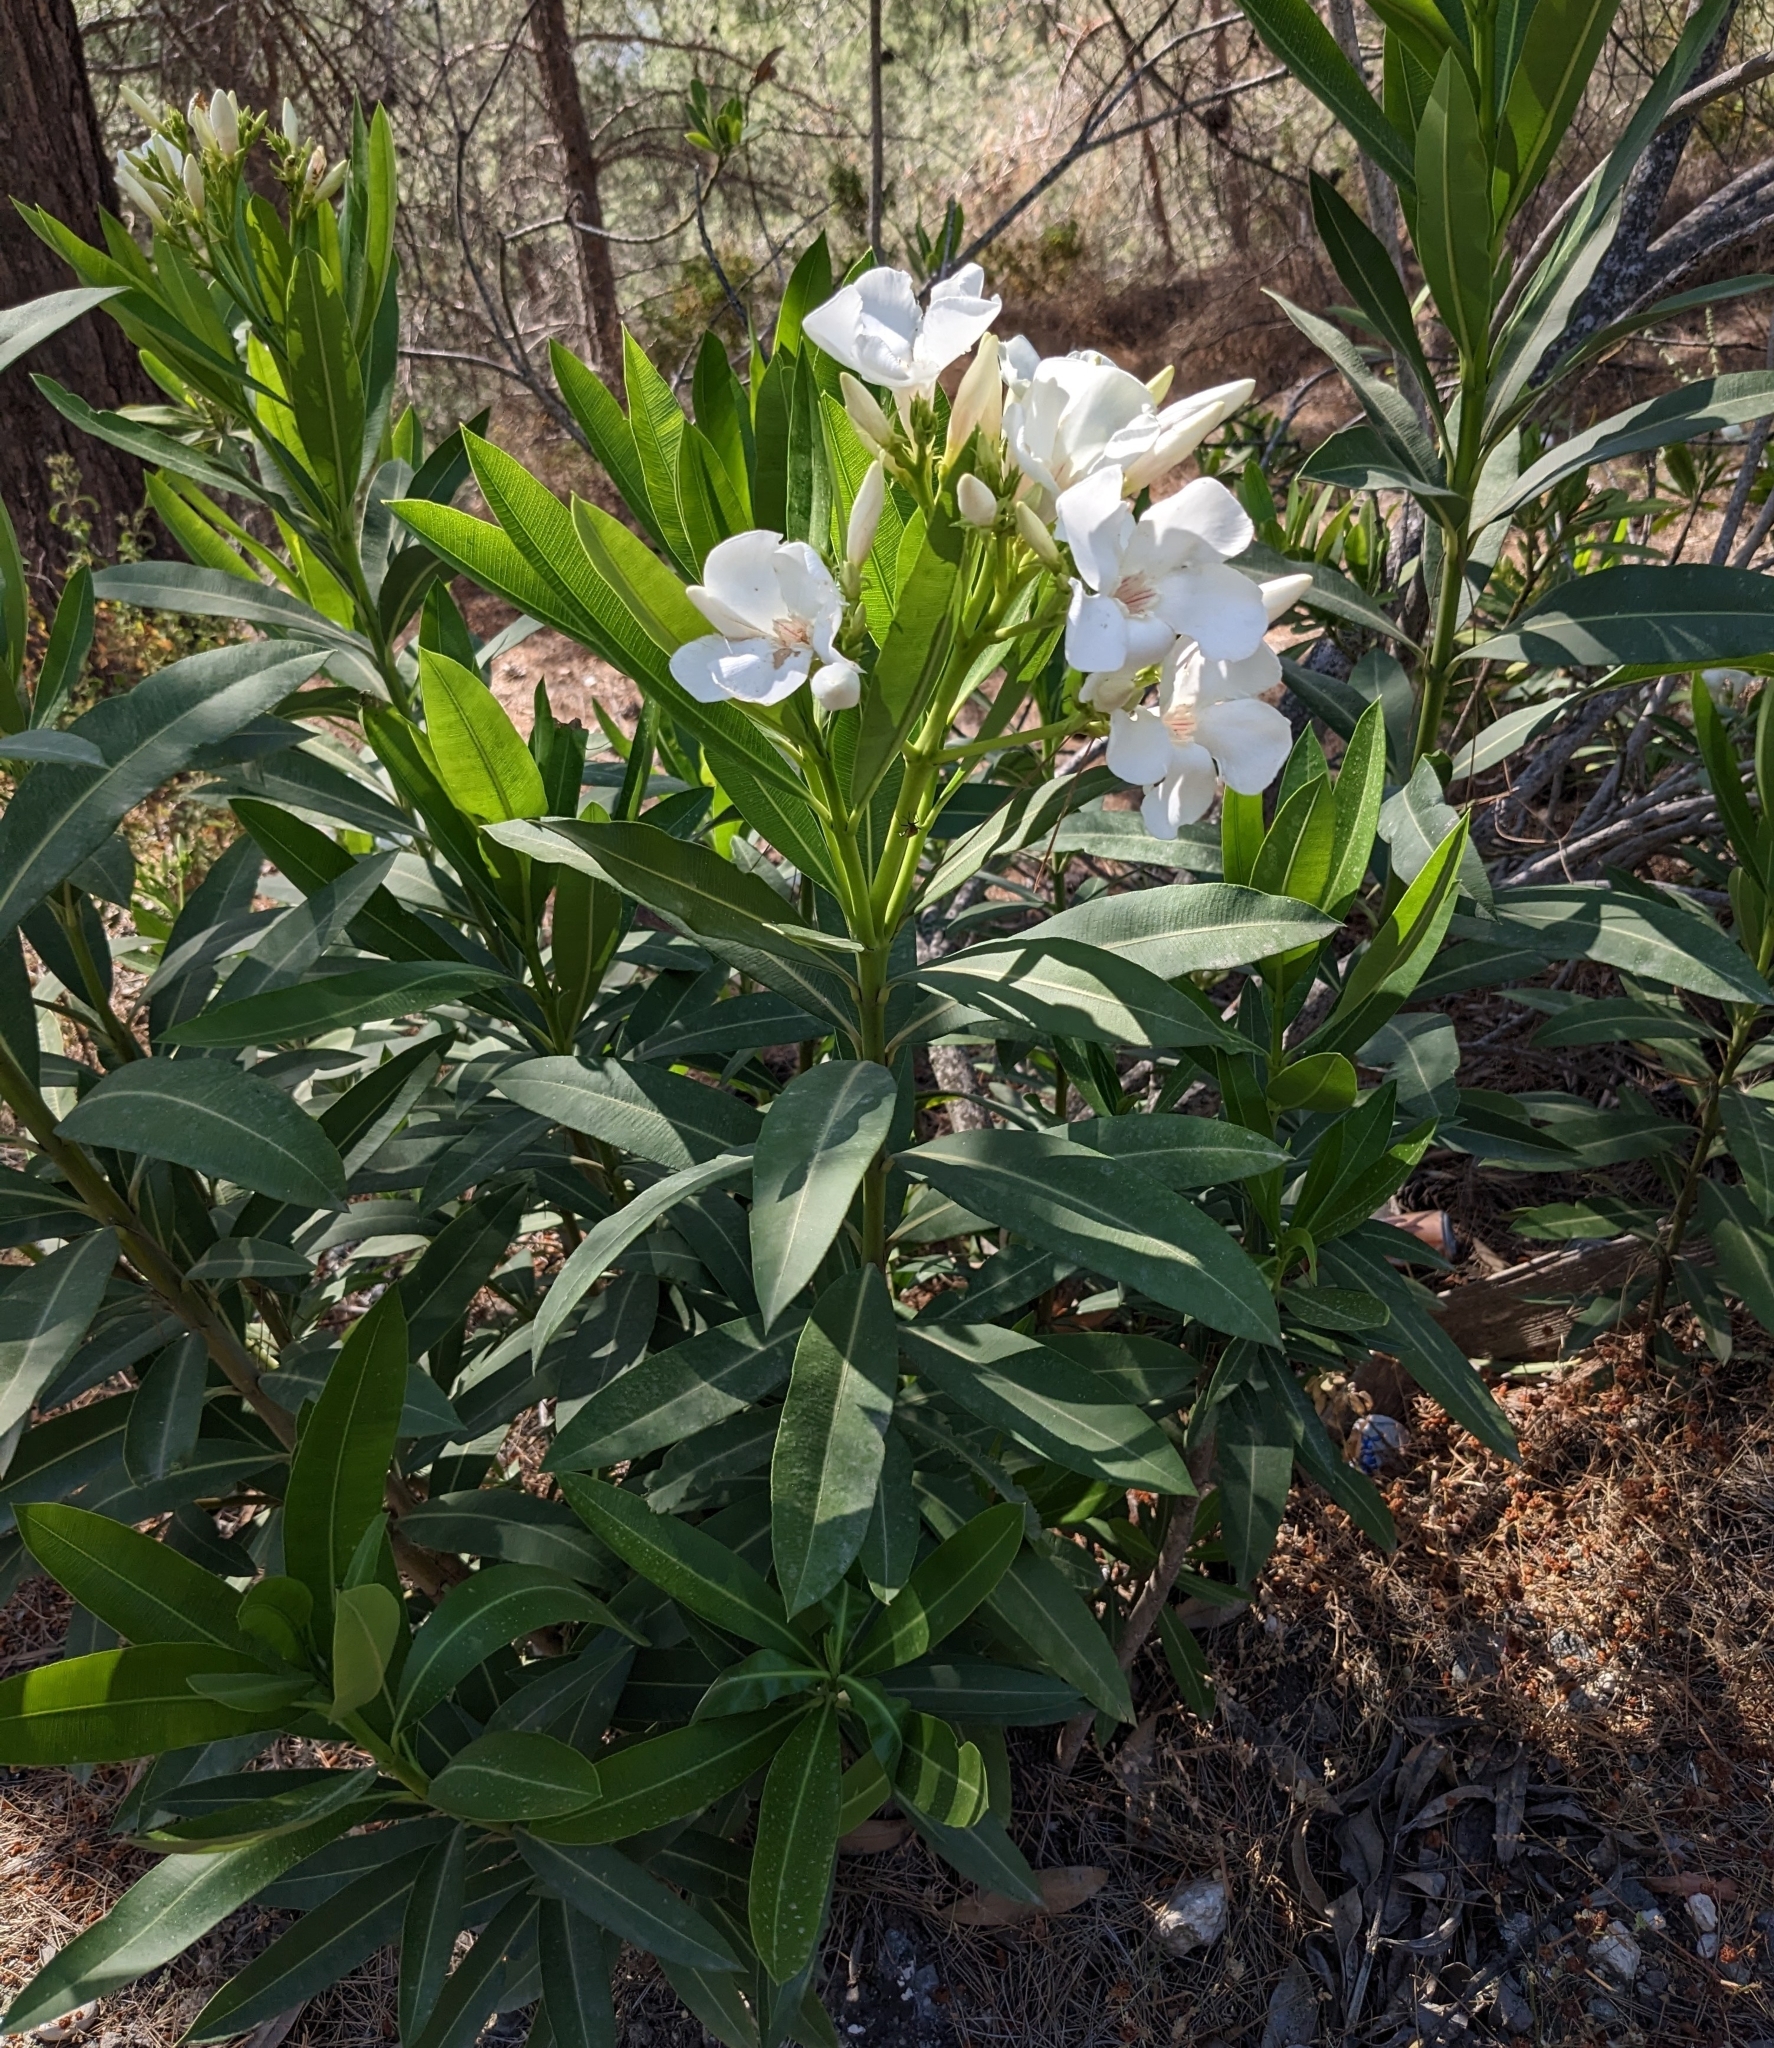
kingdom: Plantae
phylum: Tracheophyta
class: Magnoliopsida
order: Gentianales
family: Apocynaceae
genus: Nerium
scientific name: Nerium oleander
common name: Oleander
